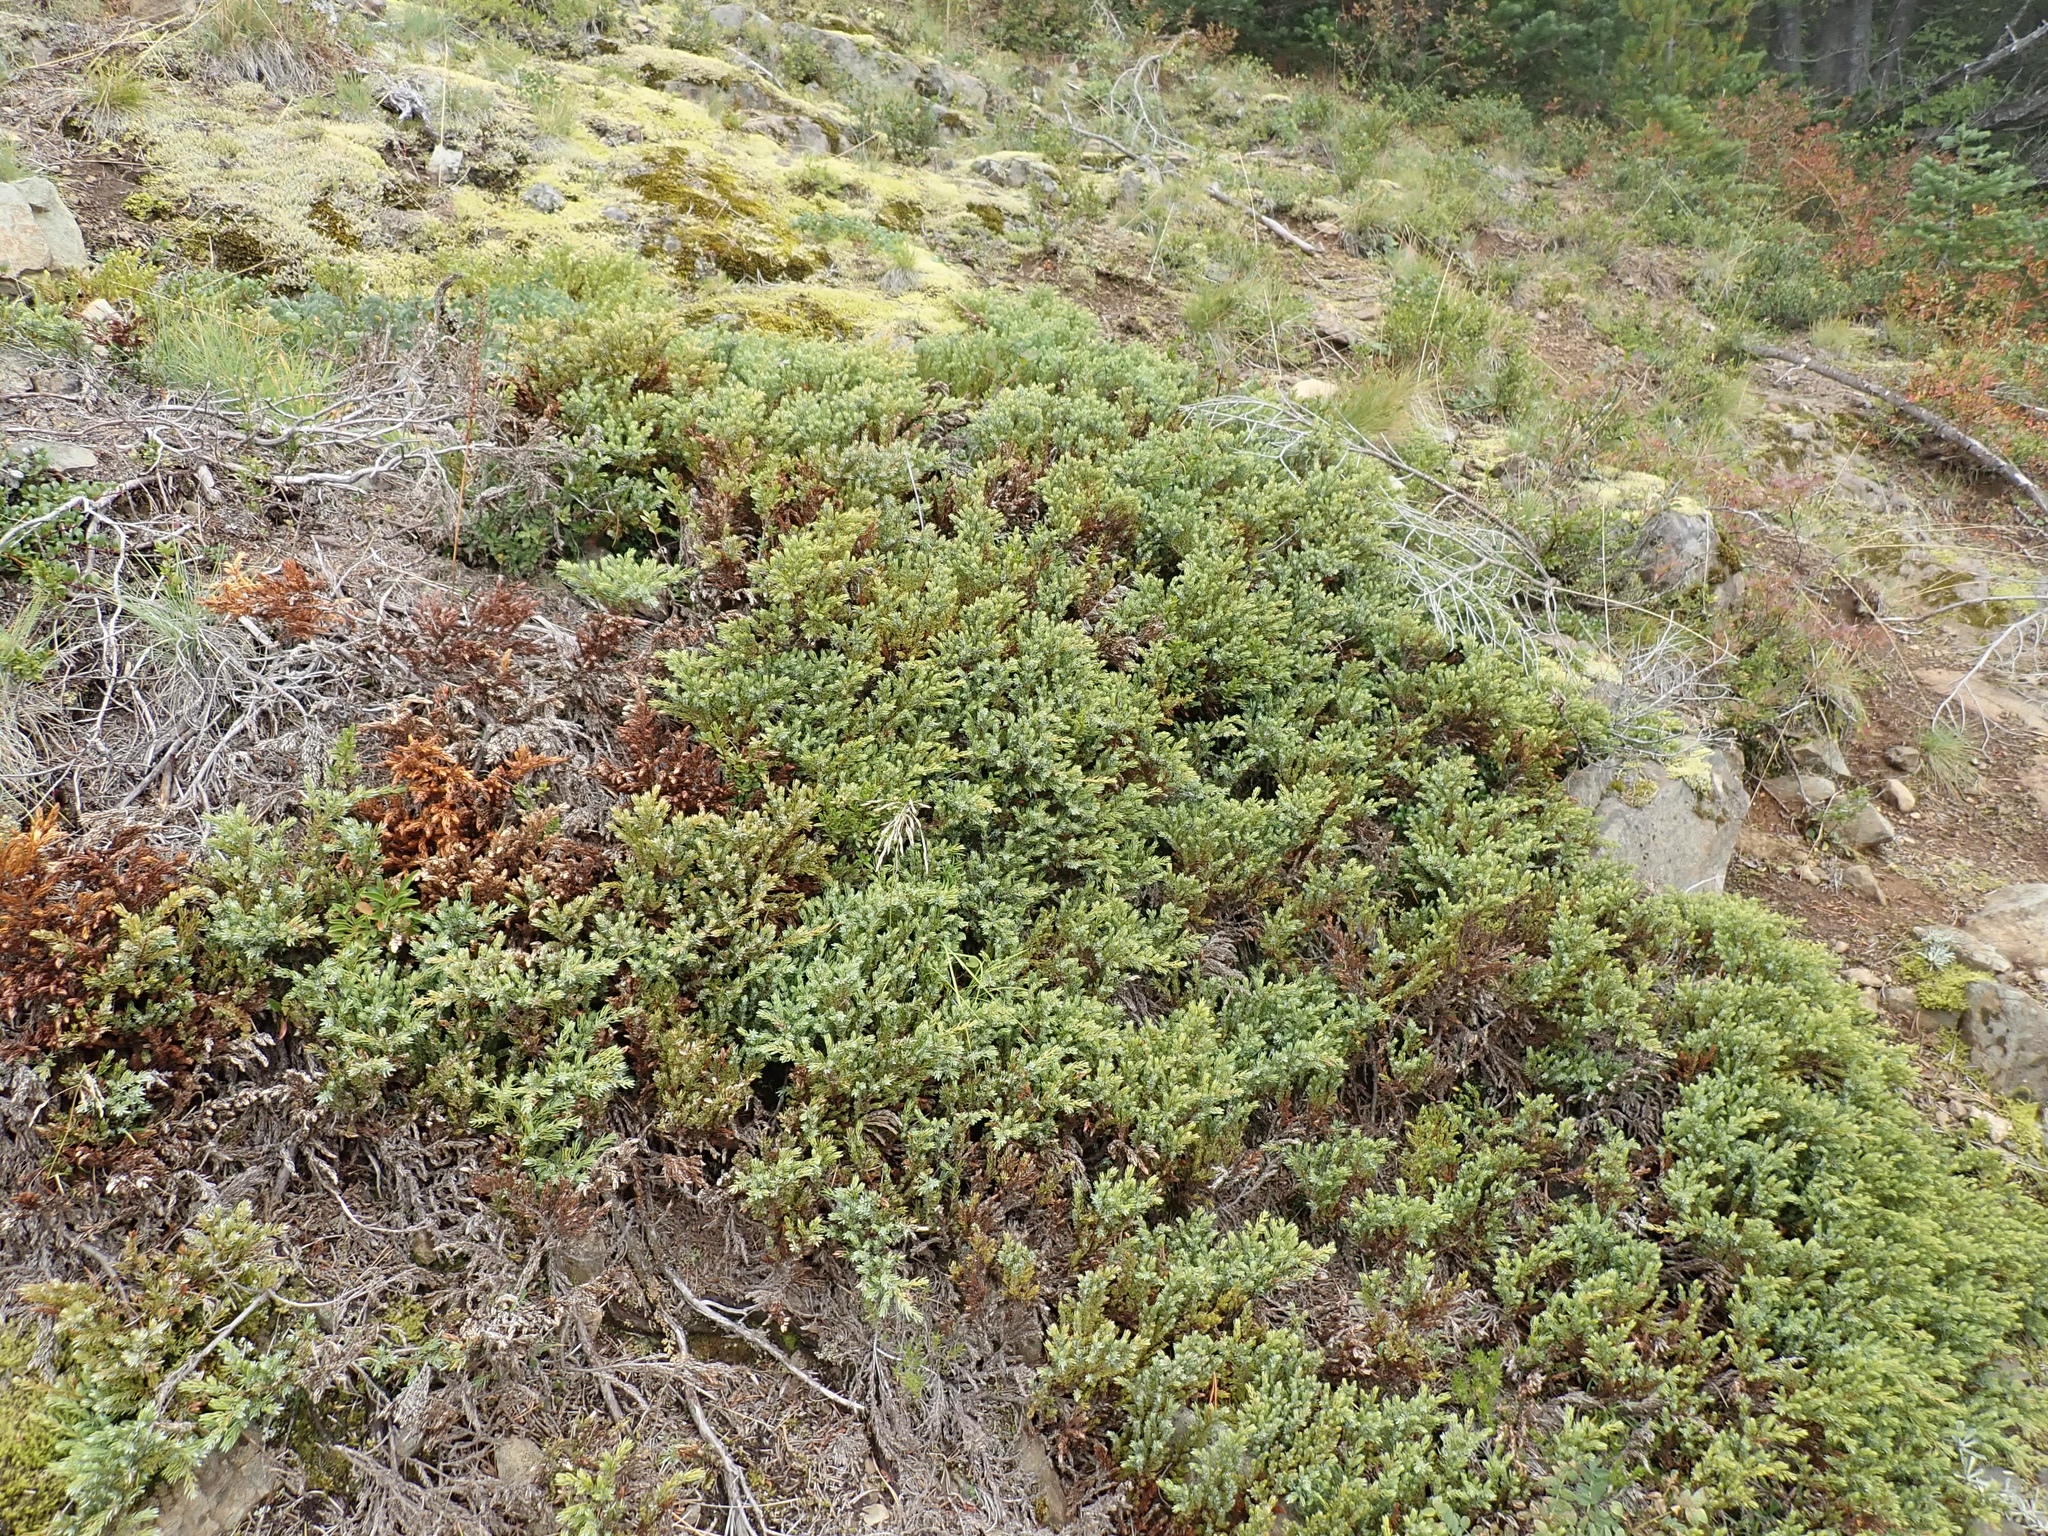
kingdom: Plantae
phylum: Tracheophyta
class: Pinopsida
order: Pinales
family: Cupressaceae
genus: Juniperus
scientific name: Juniperus communis
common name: Common juniper
